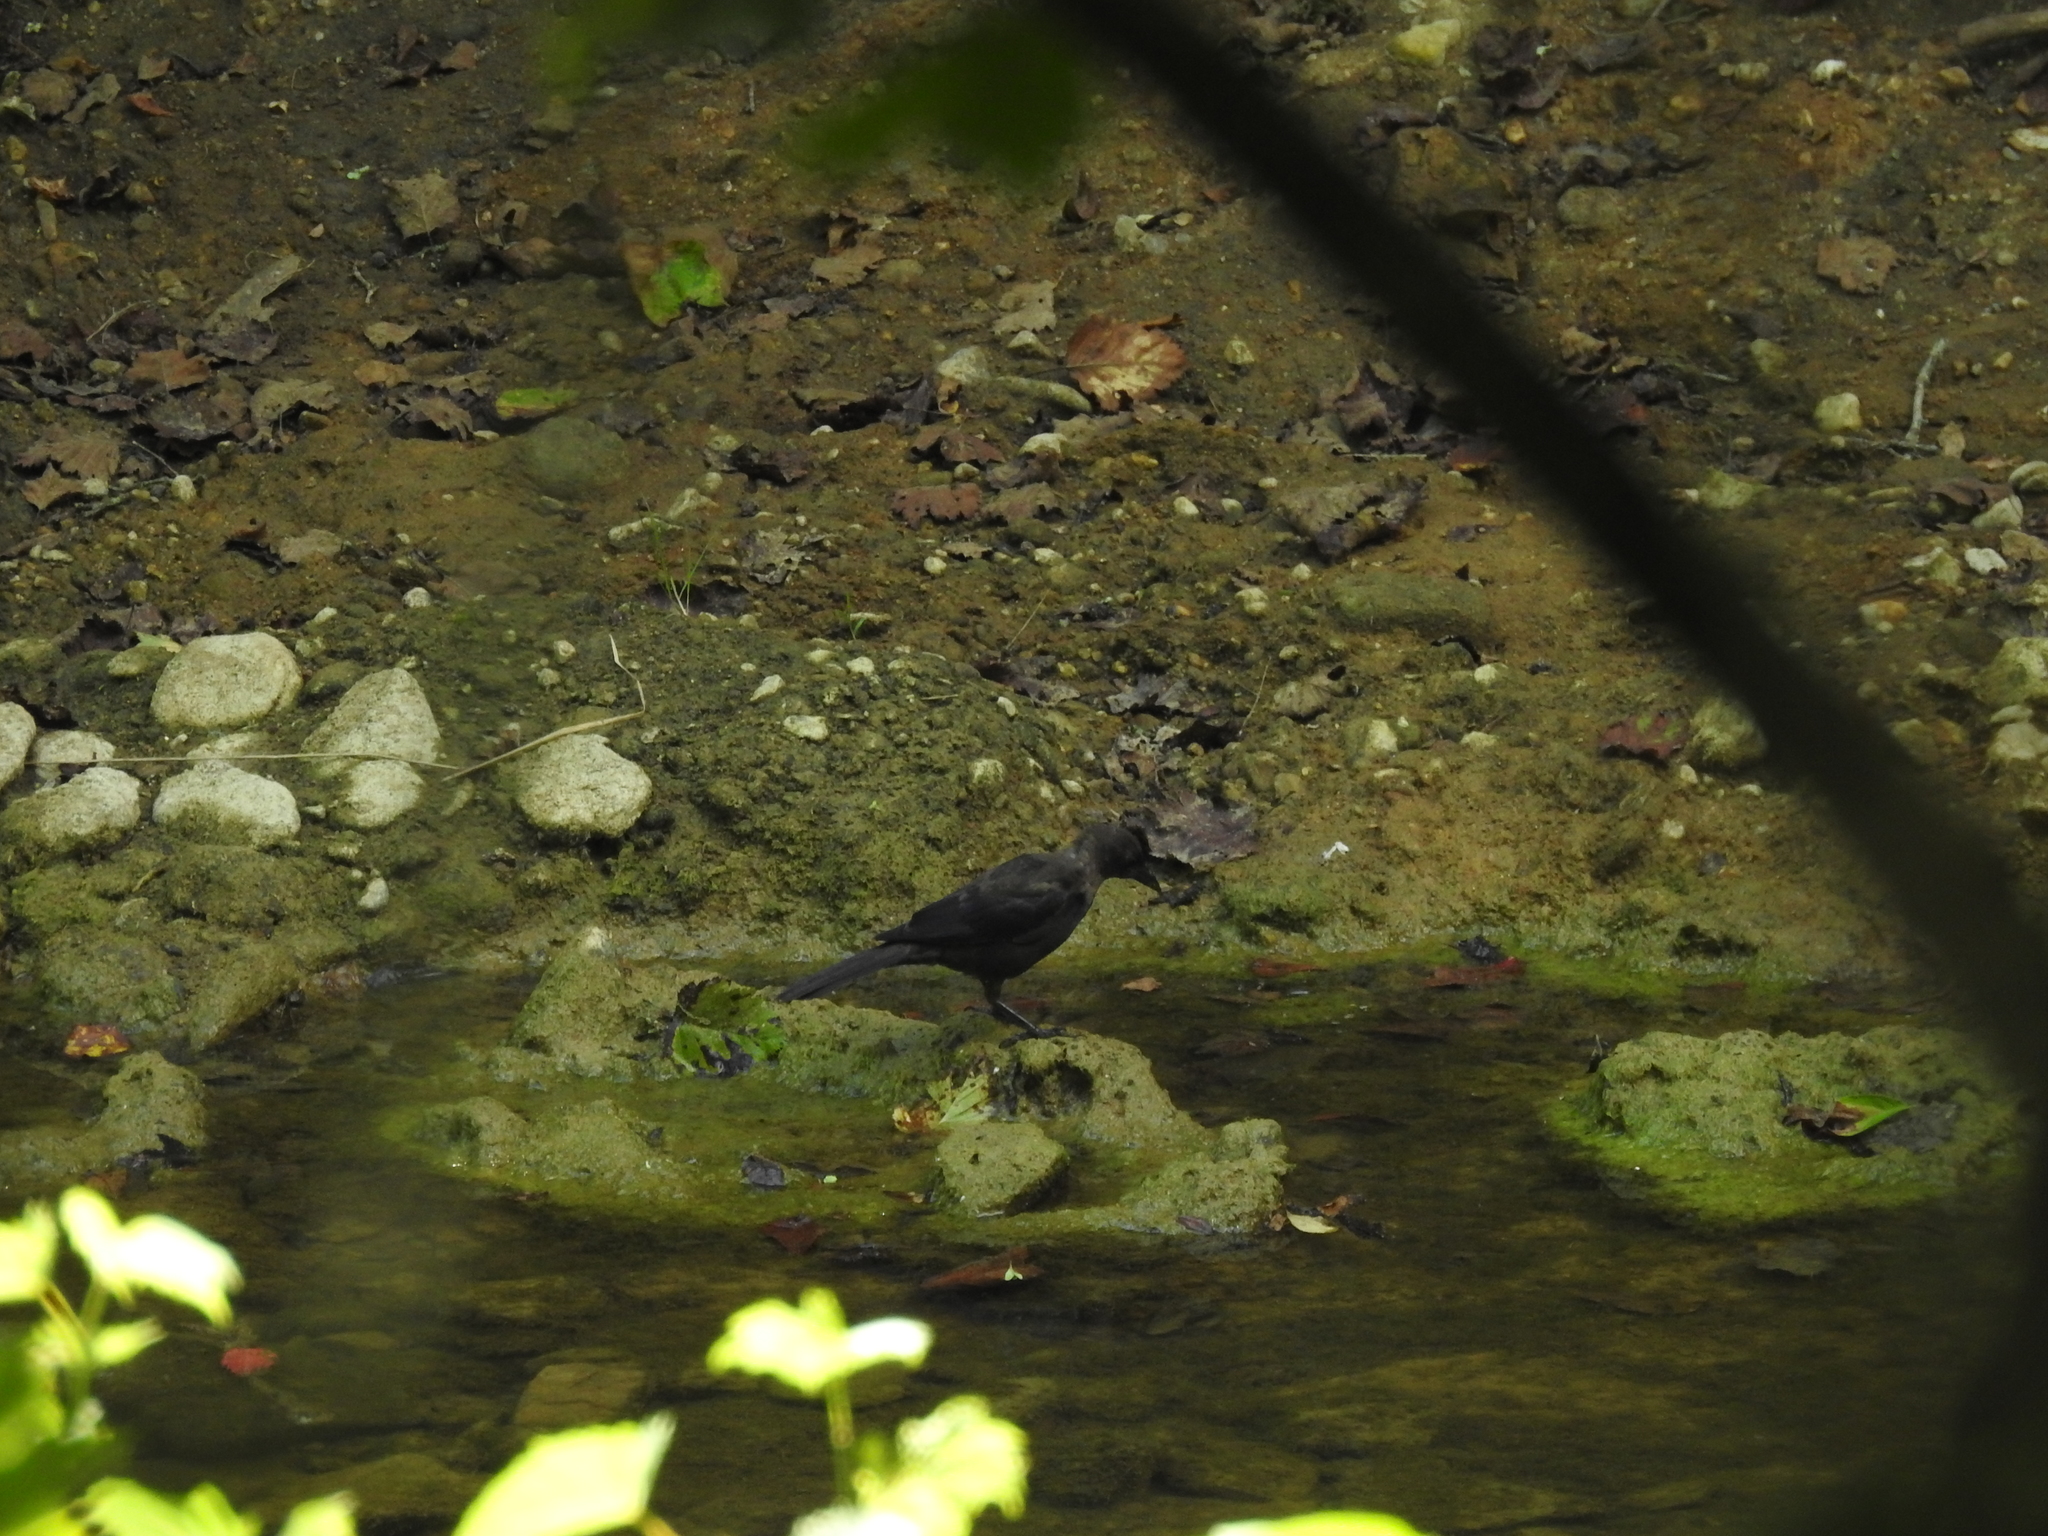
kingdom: Animalia
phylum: Chordata
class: Aves
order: Passeriformes
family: Icteridae
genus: Quiscalus
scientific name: Quiscalus quiscula
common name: Common grackle
